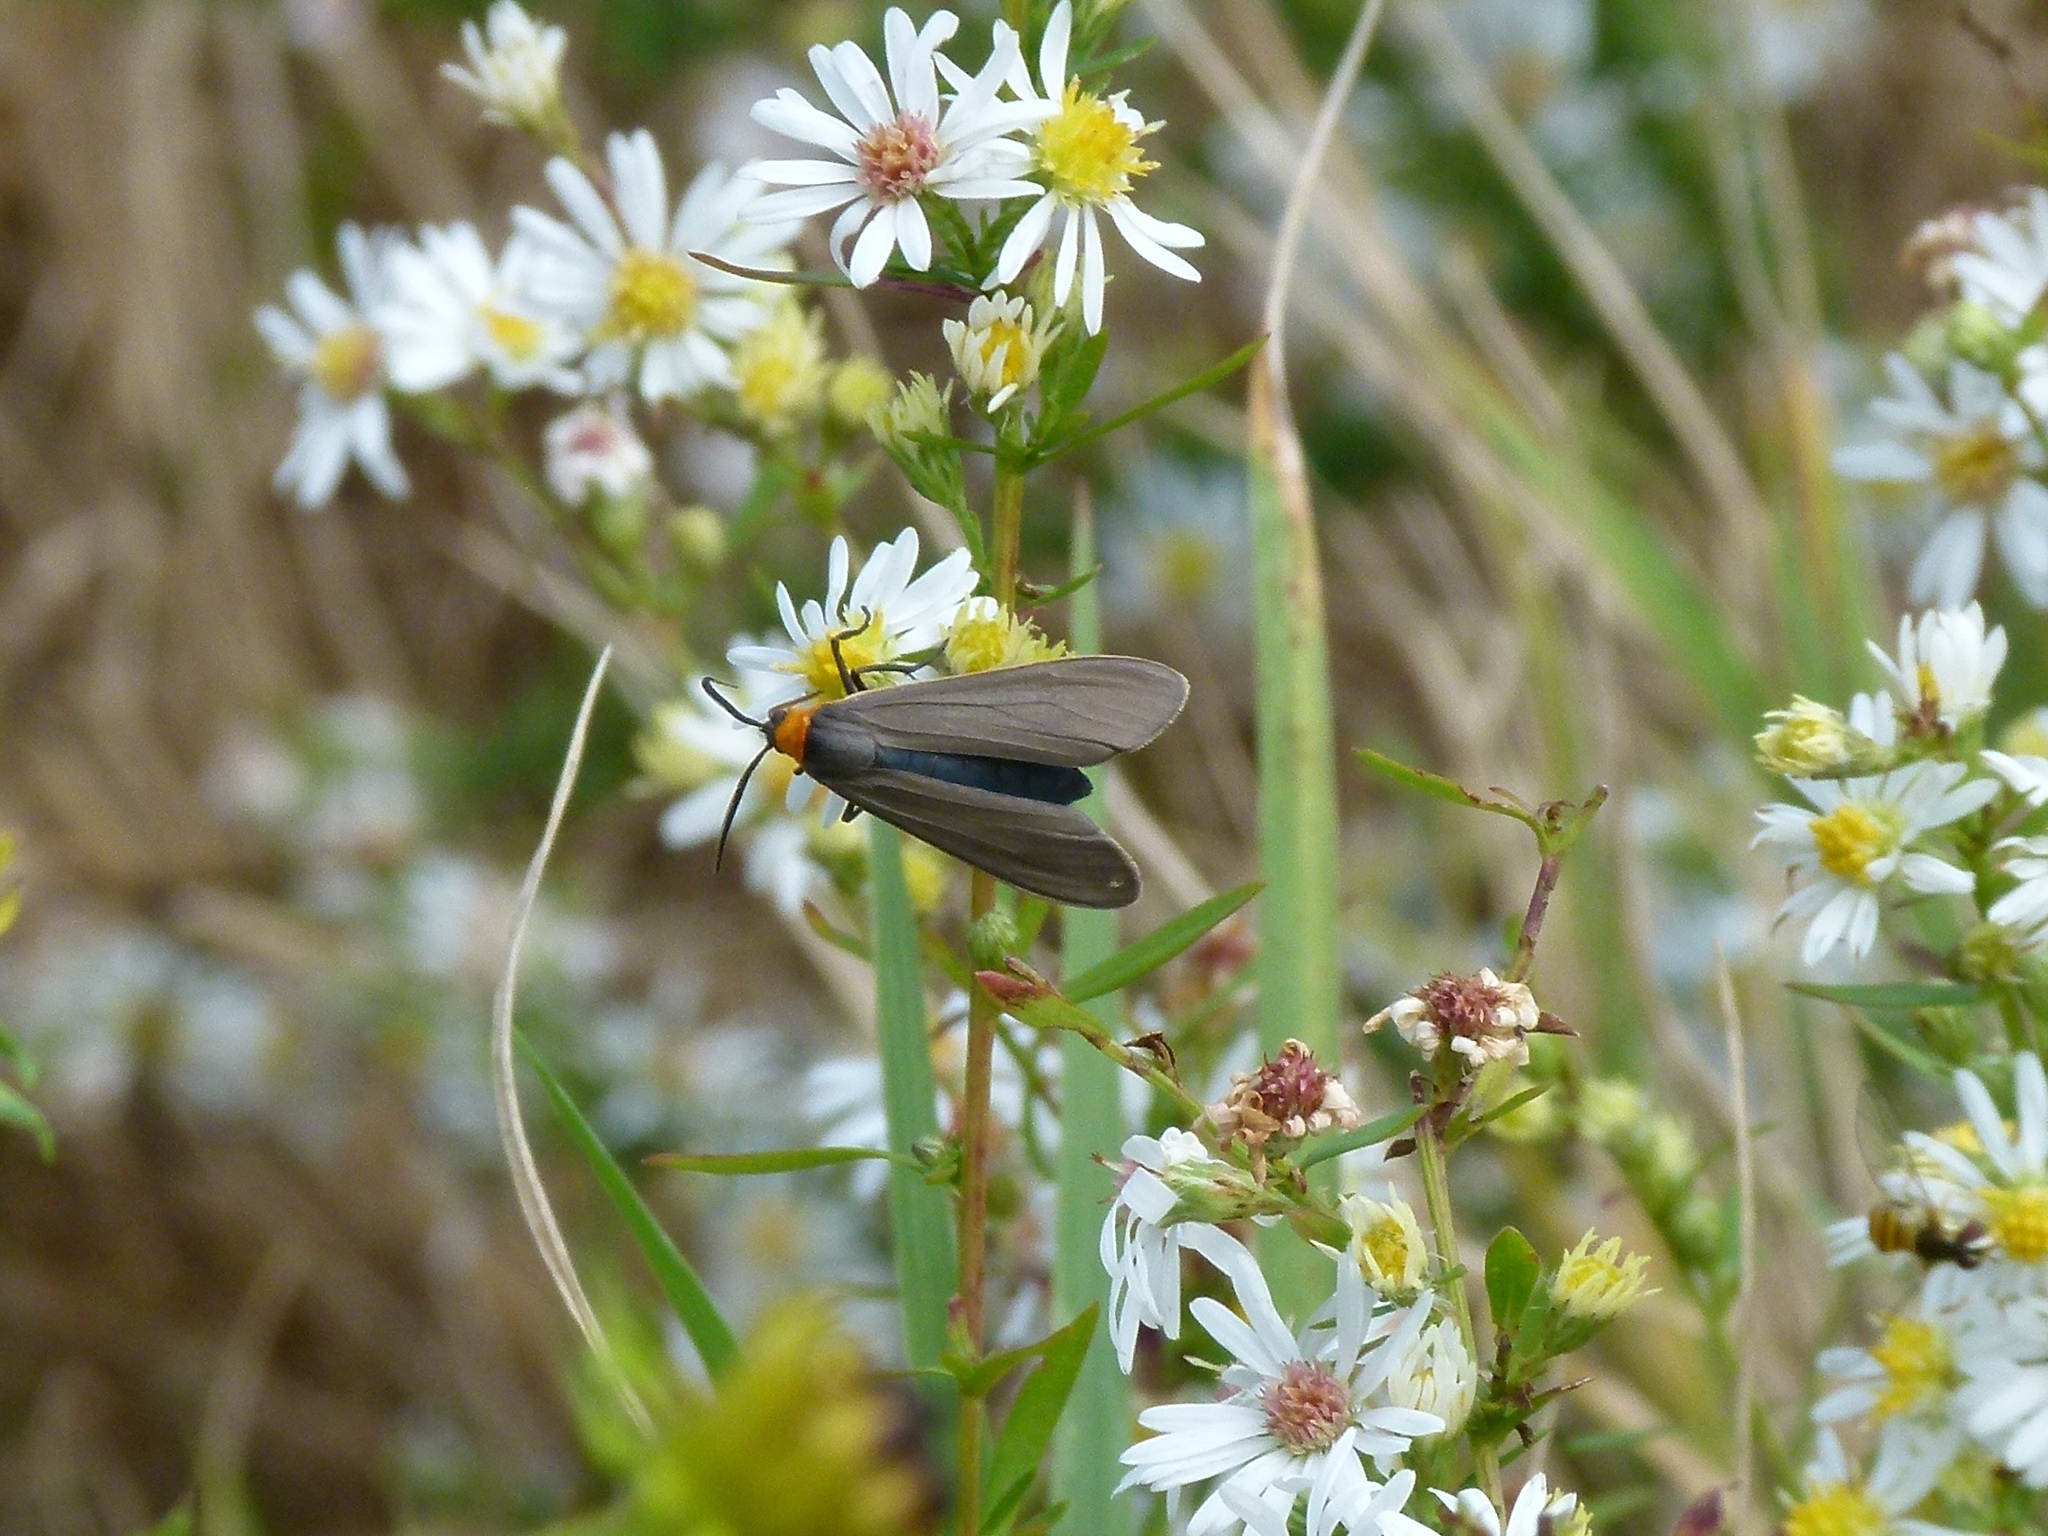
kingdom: Animalia
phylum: Arthropoda
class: Insecta
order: Lepidoptera
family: Erebidae
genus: Cisseps
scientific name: Cisseps fulvicollis
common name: Yellow-collared scape moth
